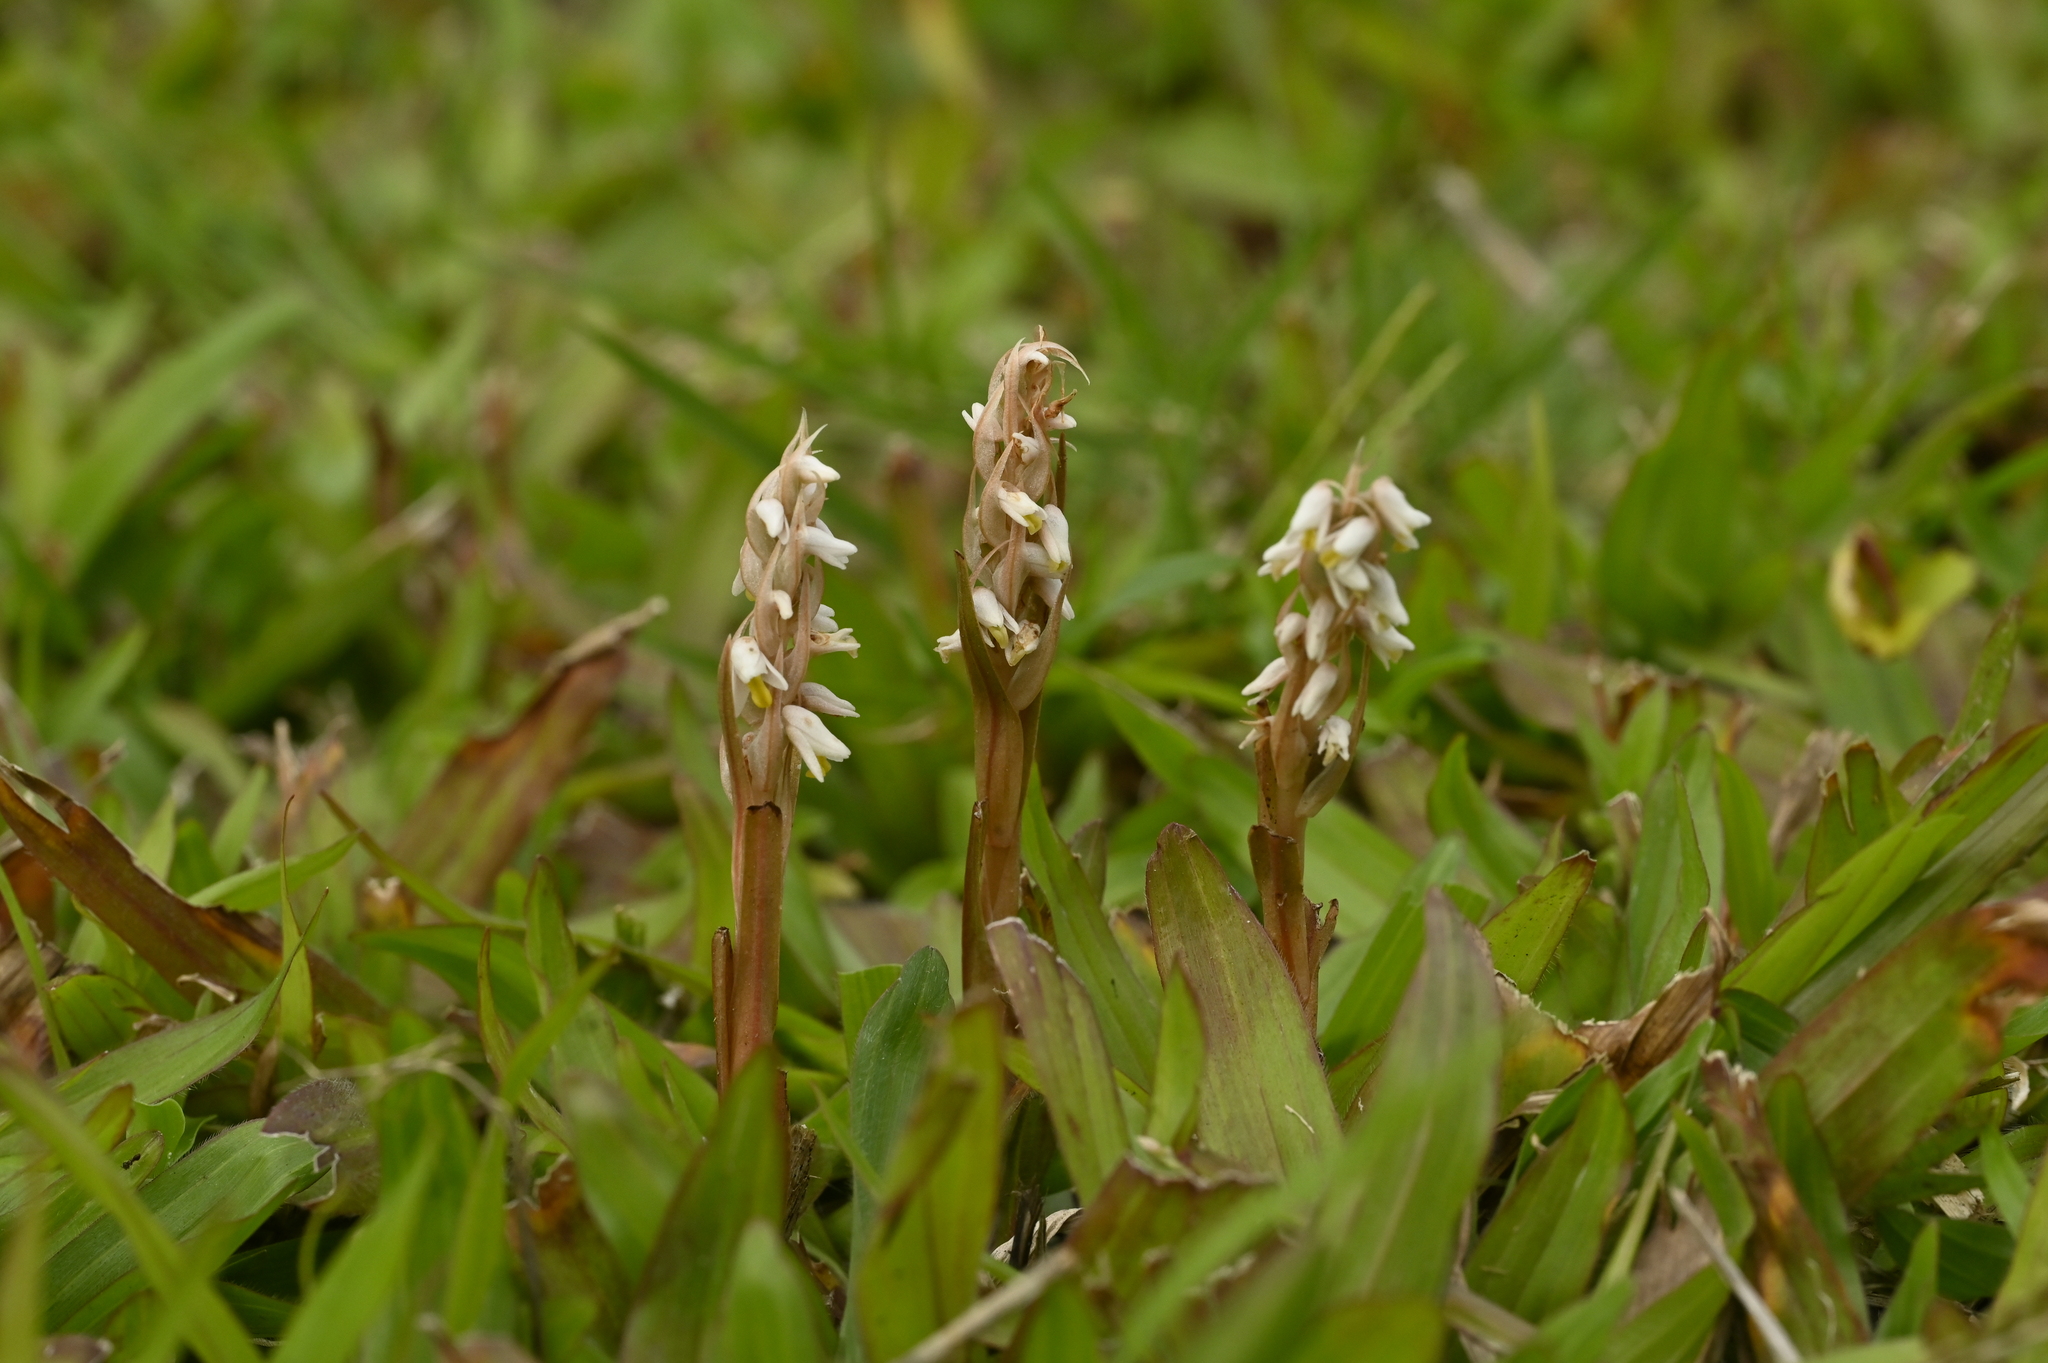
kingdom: Plantae
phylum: Tracheophyta
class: Liliopsida
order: Asparagales
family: Orchidaceae
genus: Zeuxine
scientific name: Zeuxine strateumatica
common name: Soldier's orchid
